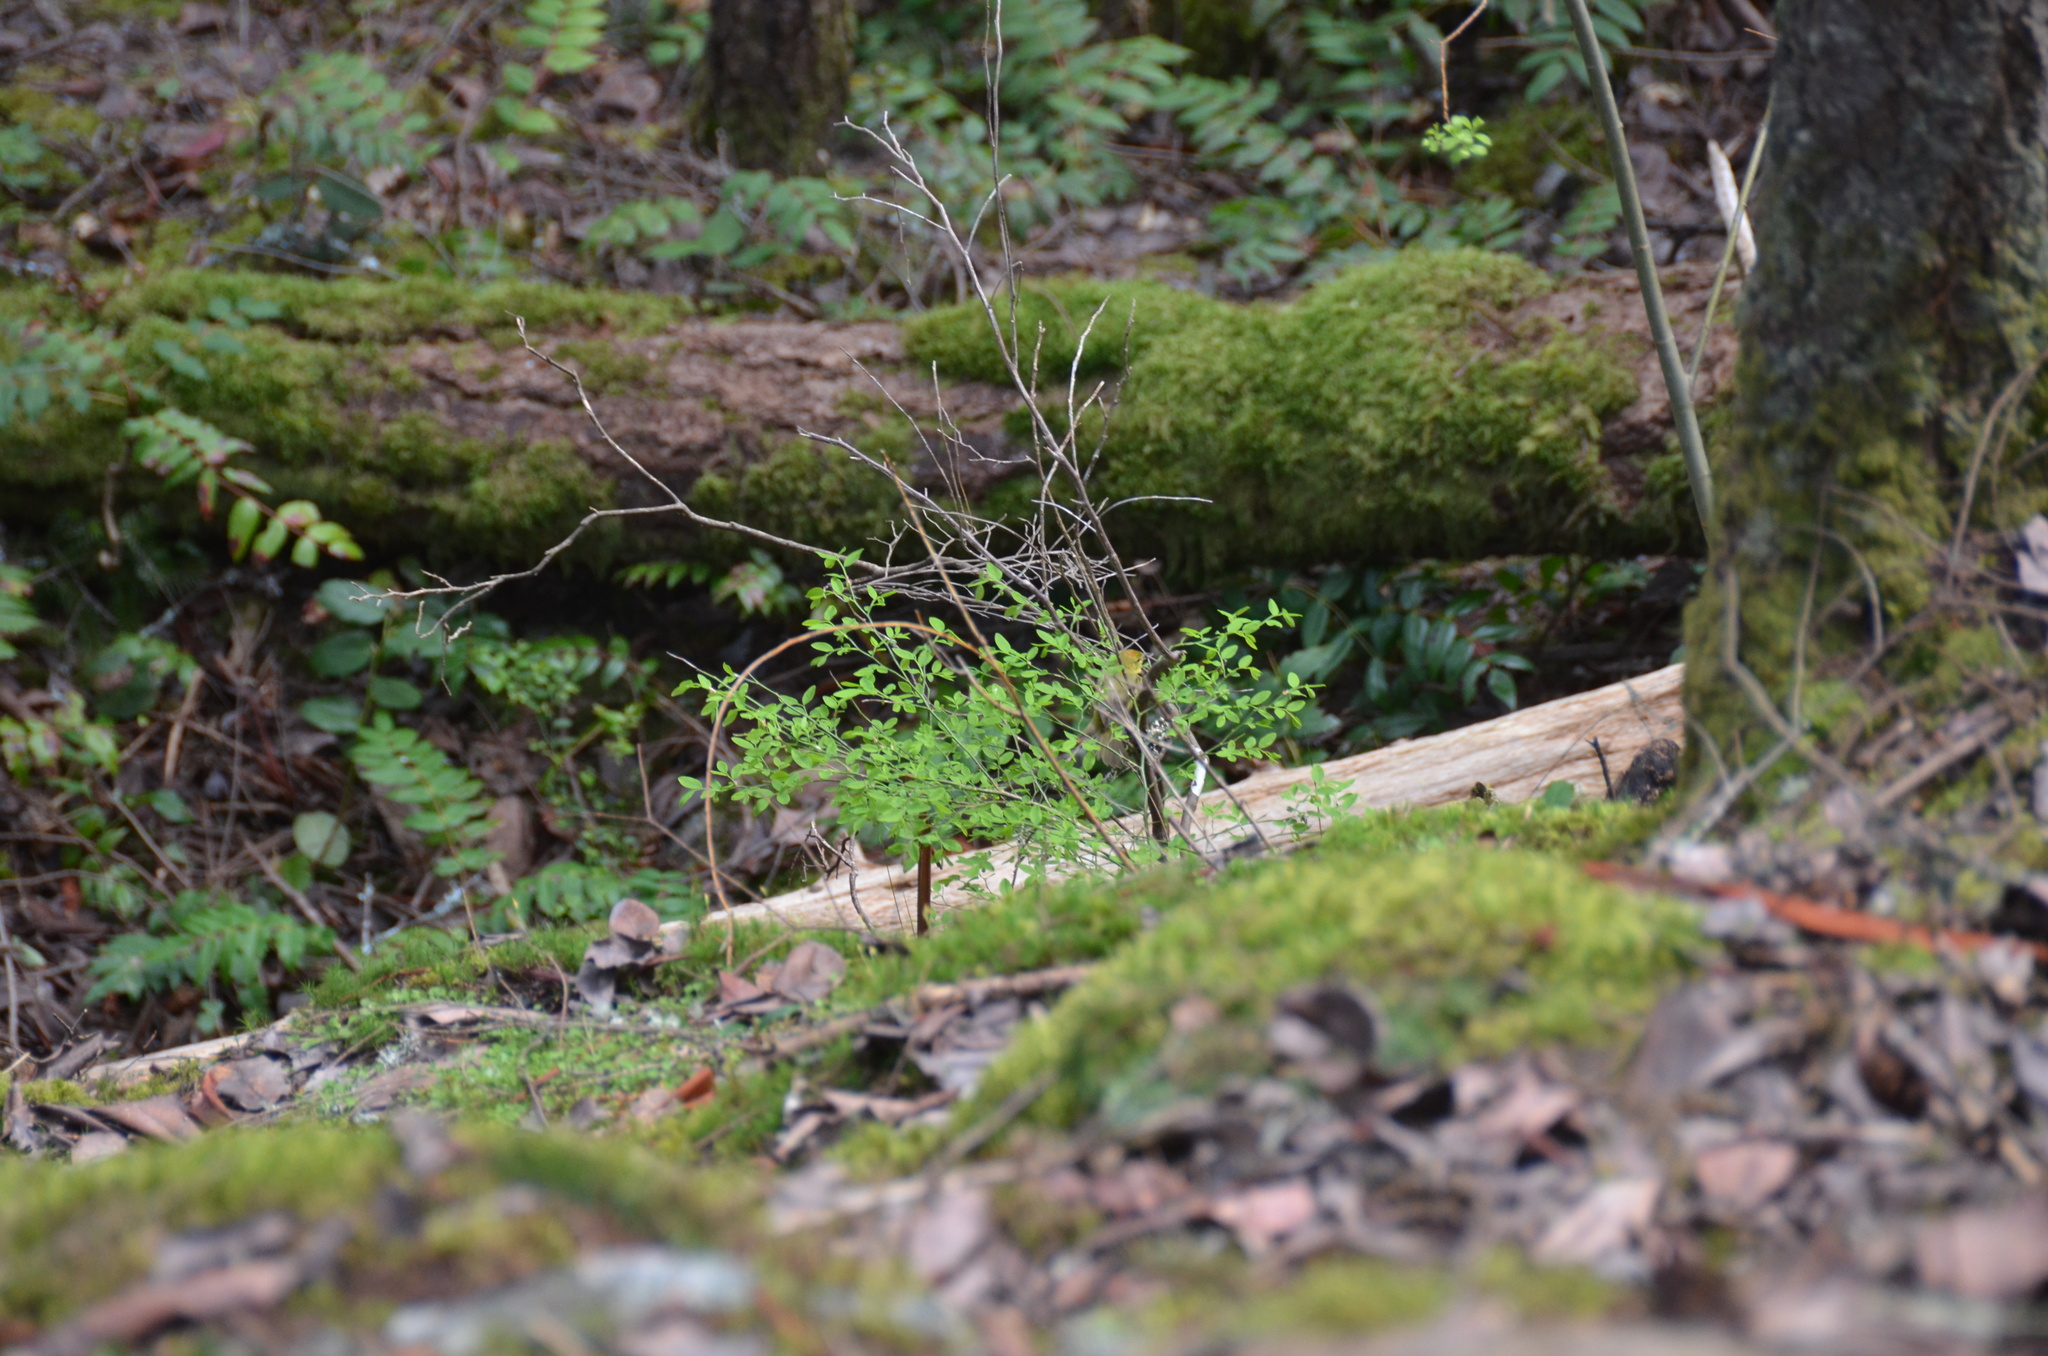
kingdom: Animalia
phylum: Chordata
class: Aves
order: Passeriformes
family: Parulidae
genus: Leiothlypis
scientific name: Leiothlypis celata
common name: Orange-crowned warbler
